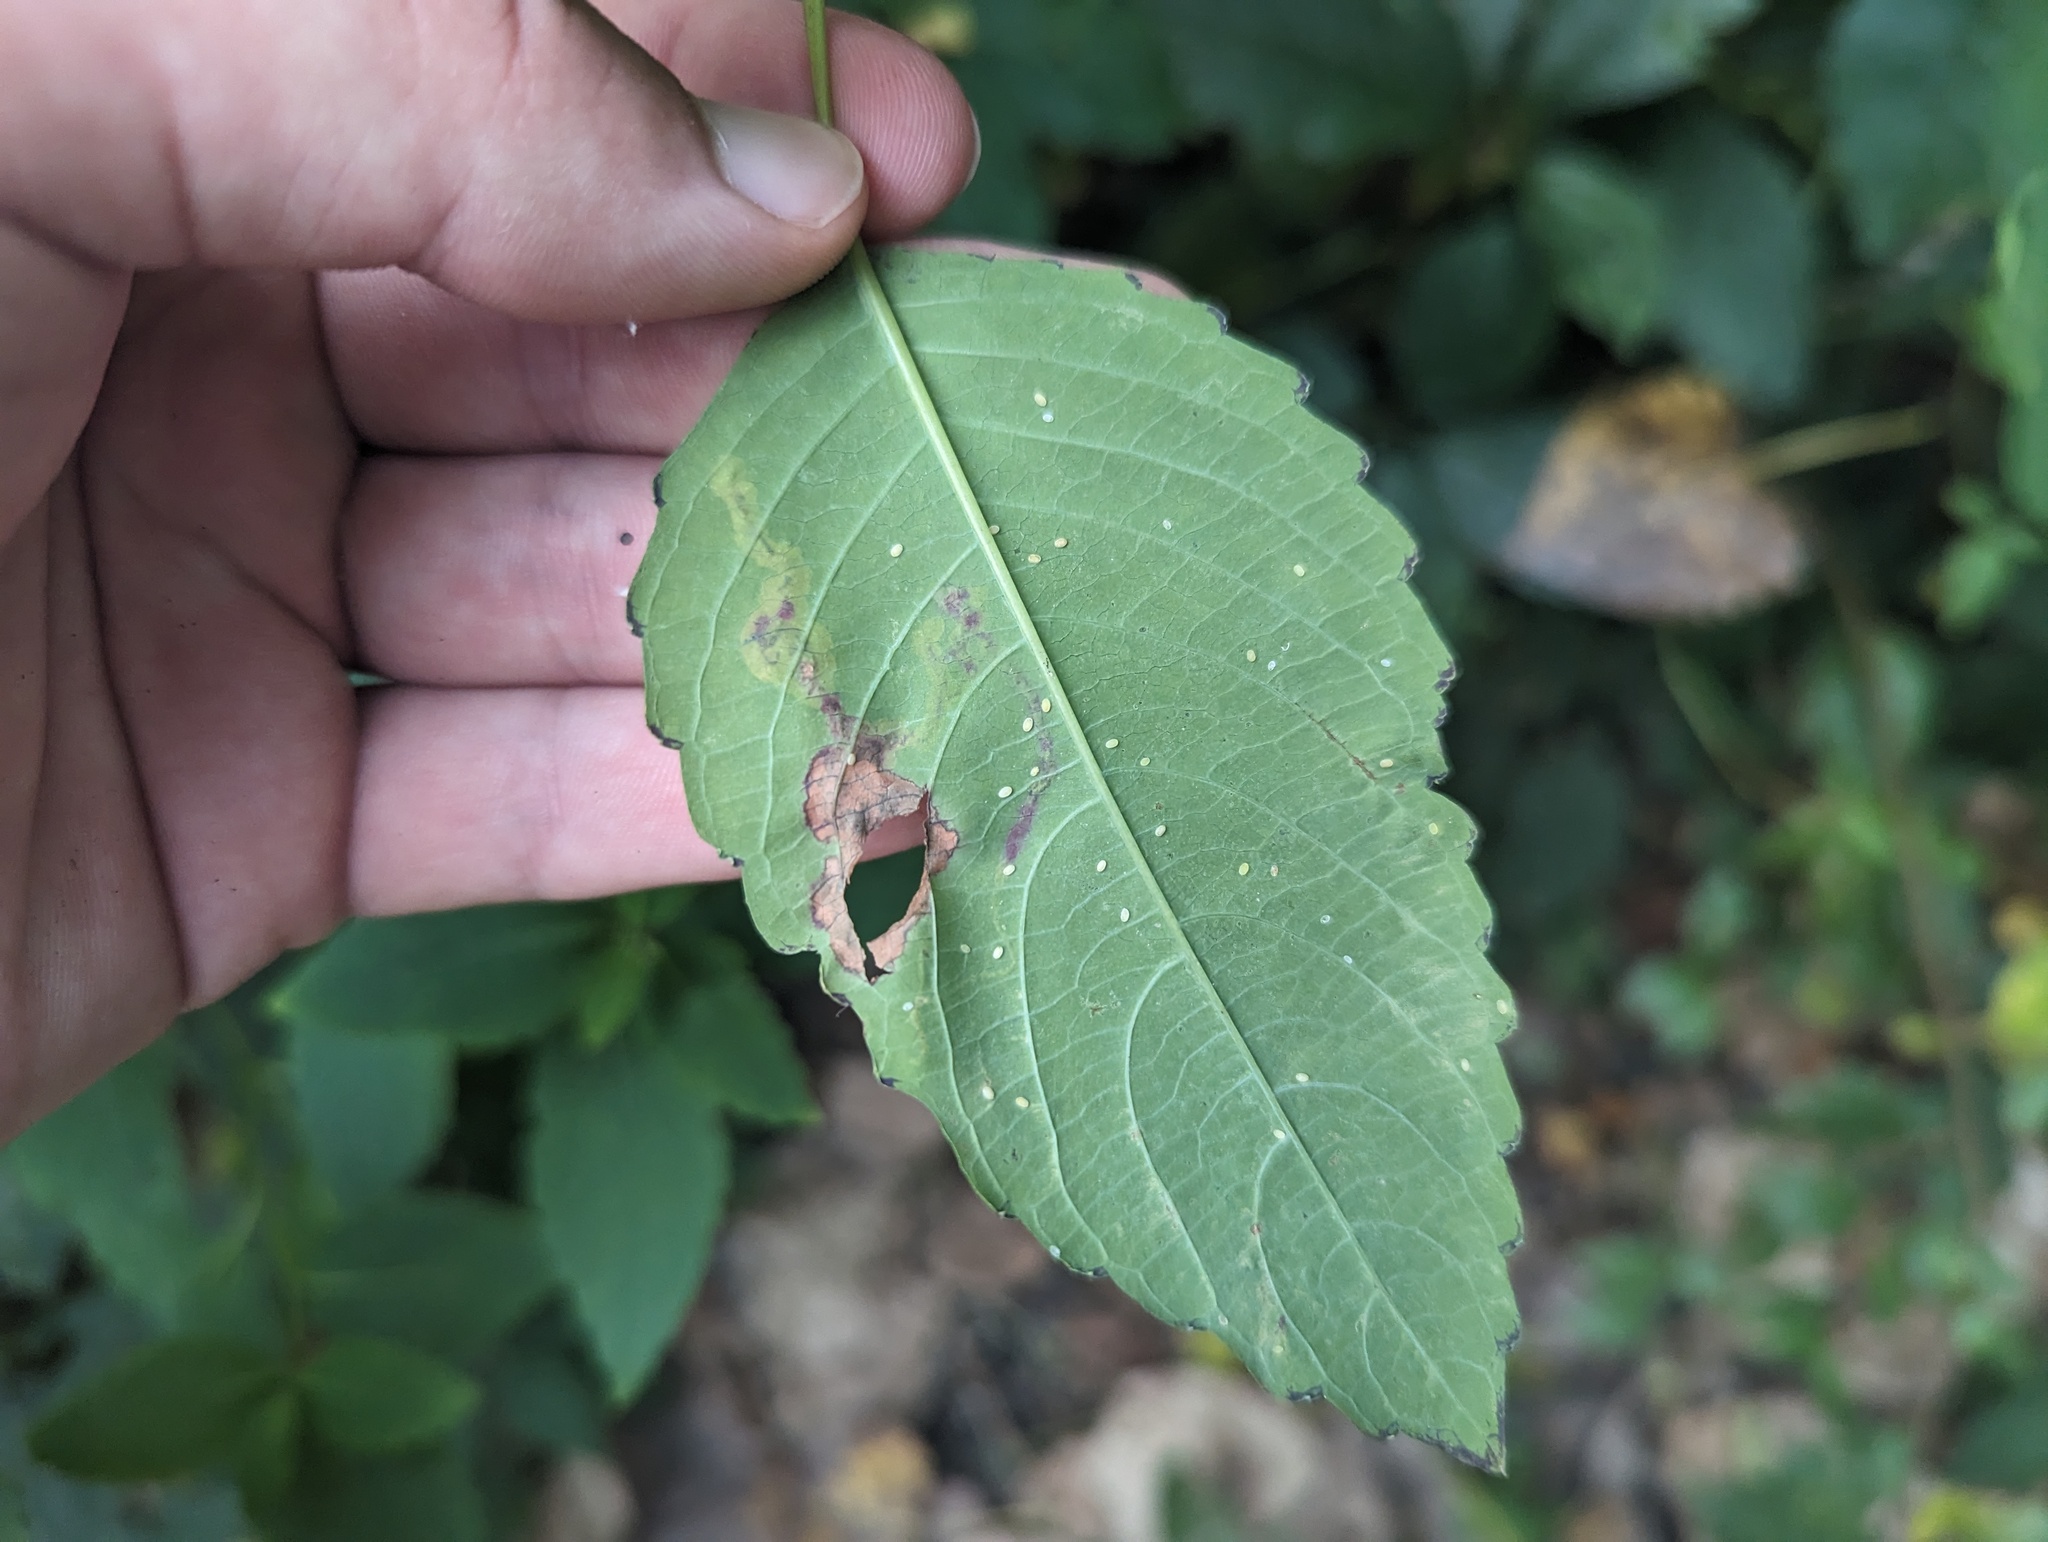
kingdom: Animalia
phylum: Arthropoda
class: Insecta
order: Diptera
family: Agromyzidae
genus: Phytoliriomyza
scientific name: Phytoliriomyza melampyga
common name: Jewelweed leaf-miner fly
